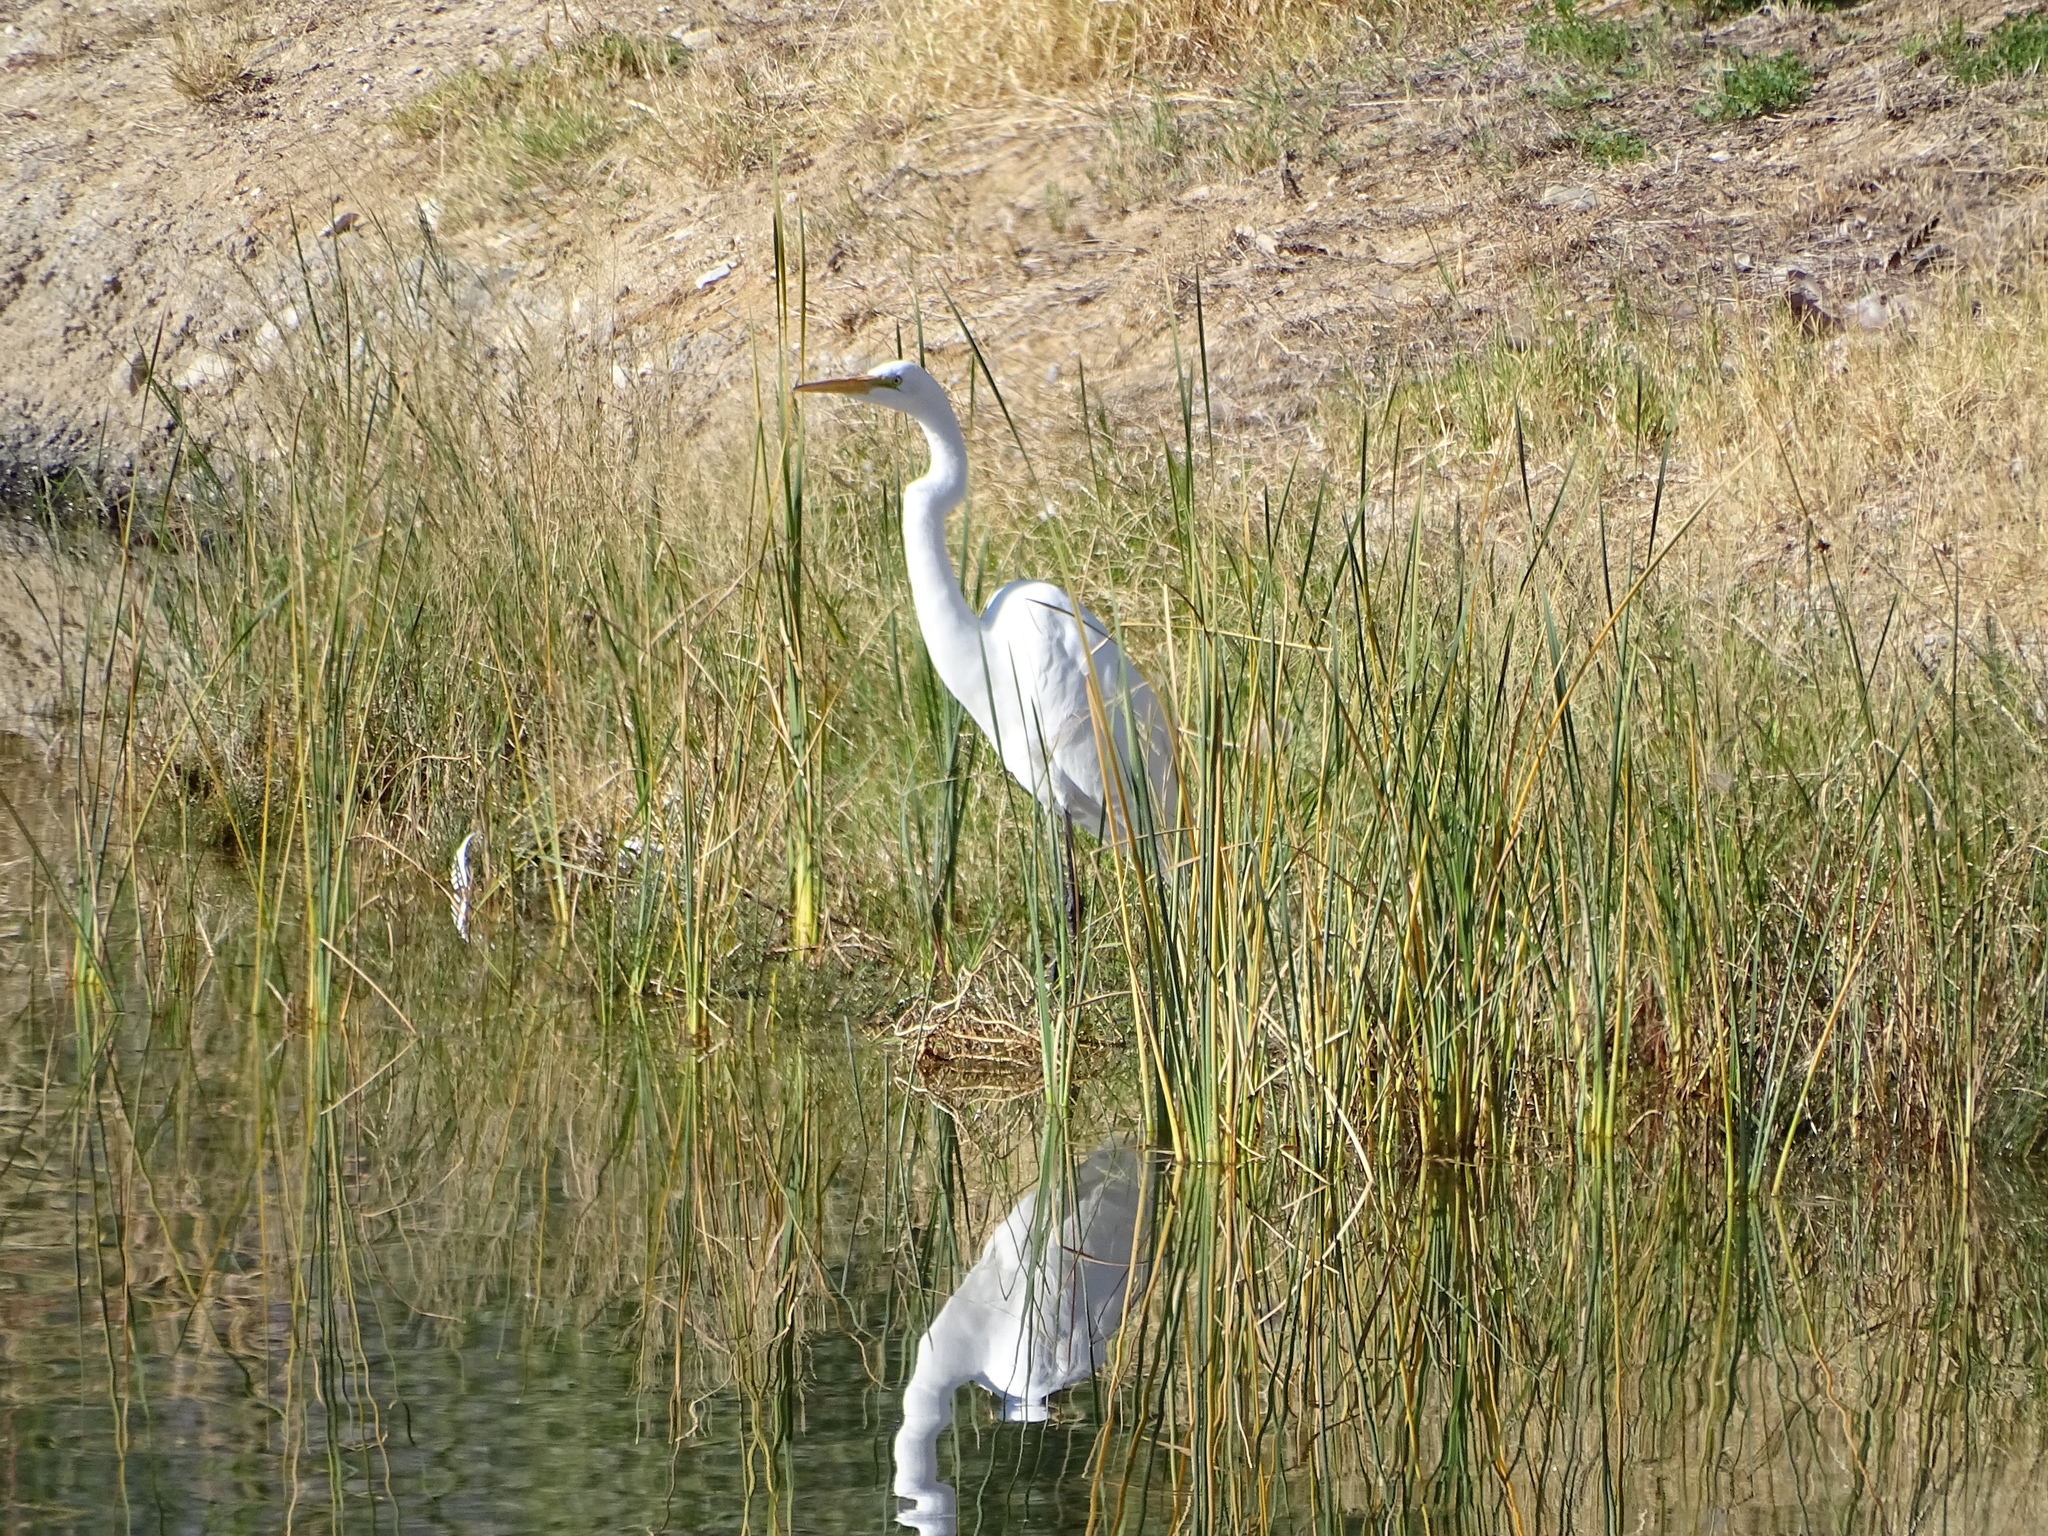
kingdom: Animalia
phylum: Chordata
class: Aves
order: Pelecaniformes
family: Ardeidae
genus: Ardea
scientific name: Ardea alba
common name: Great egret
